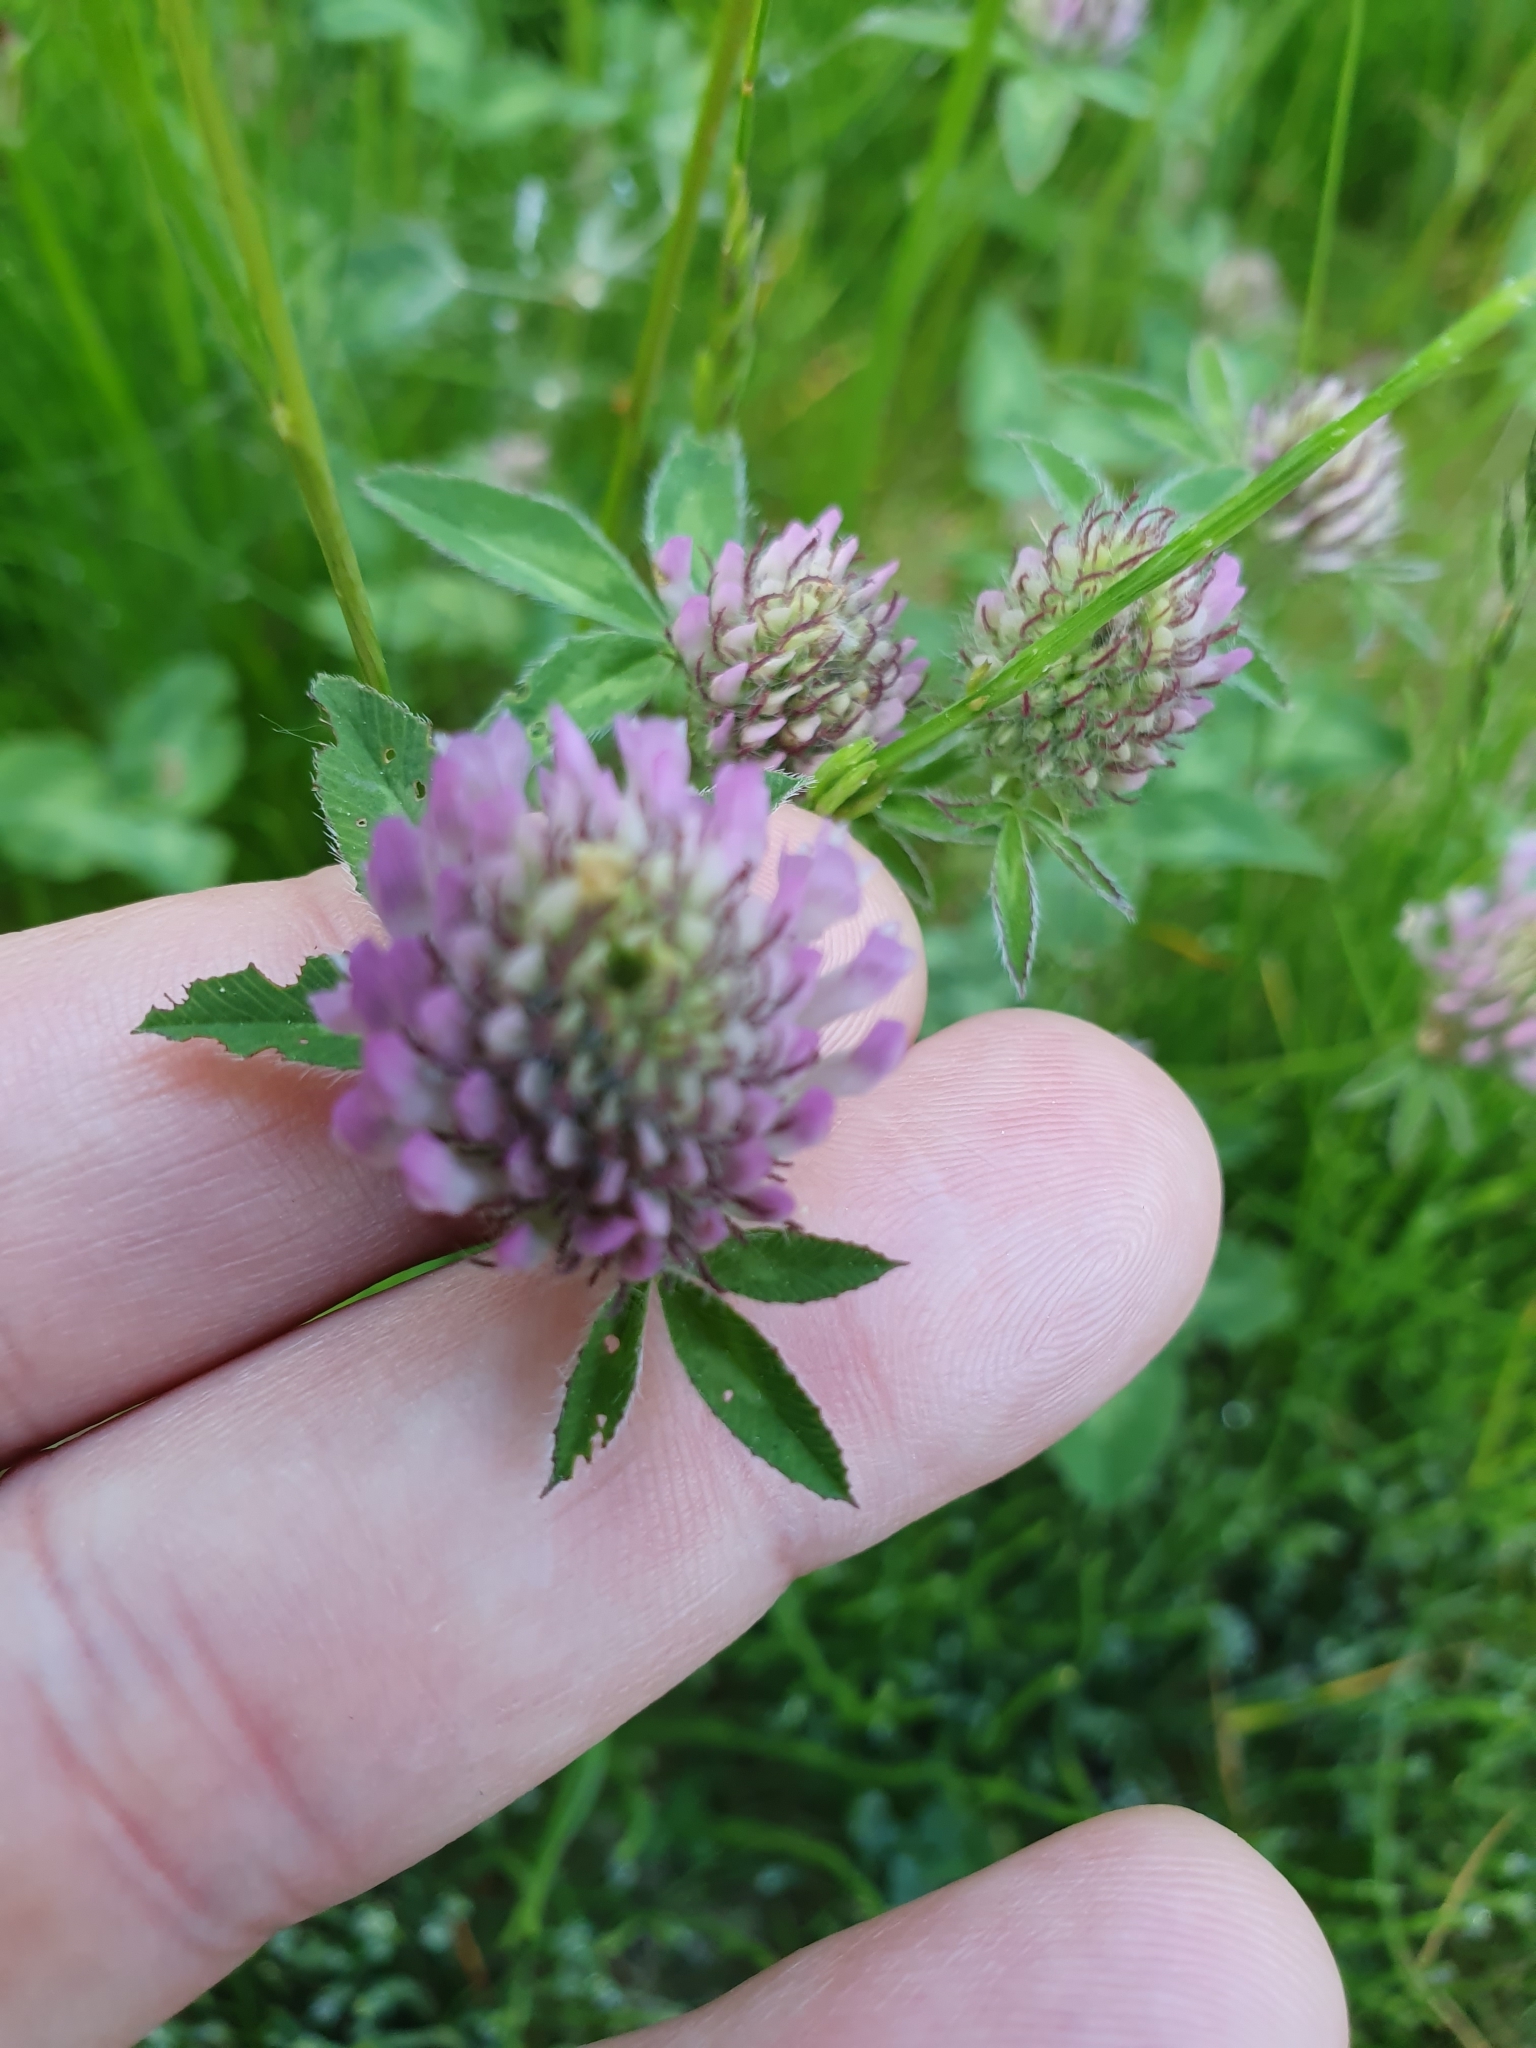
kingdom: Plantae
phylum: Tracheophyta
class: Magnoliopsida
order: Fabales
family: Fabaceae
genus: Trifolium
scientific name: Trifolium pratense
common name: Red clover
